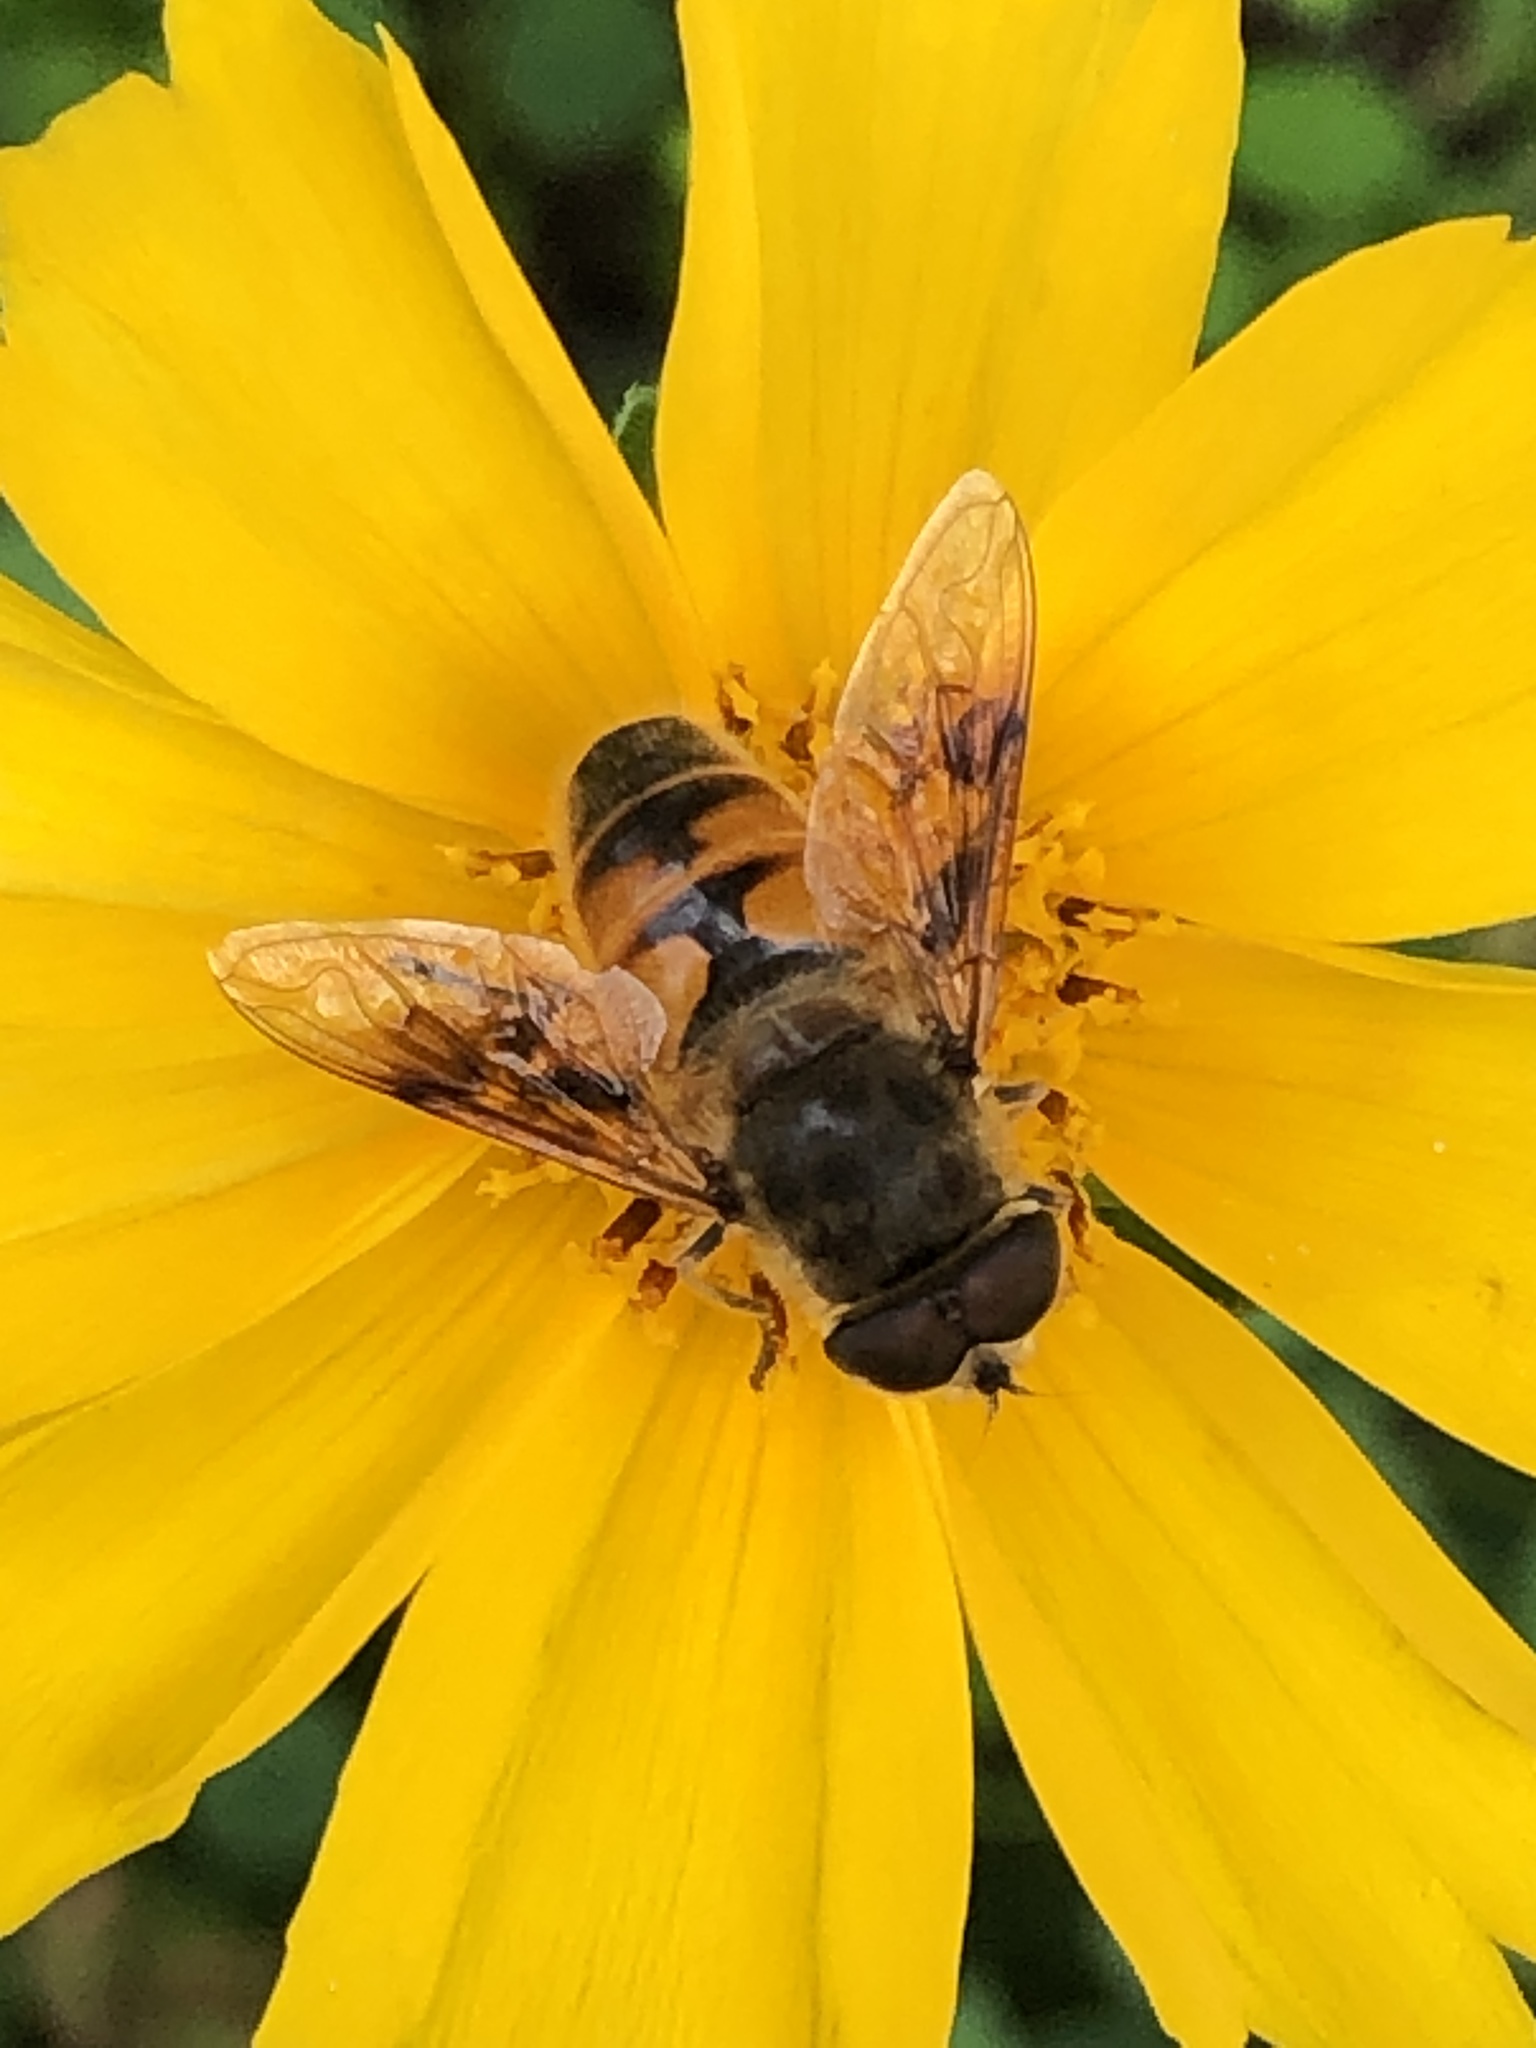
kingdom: Animalia
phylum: Arthropoda
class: Insecta
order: Diptera
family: Syrphidae
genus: Eristalis
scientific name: Eristalis tenax
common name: Drone fly
